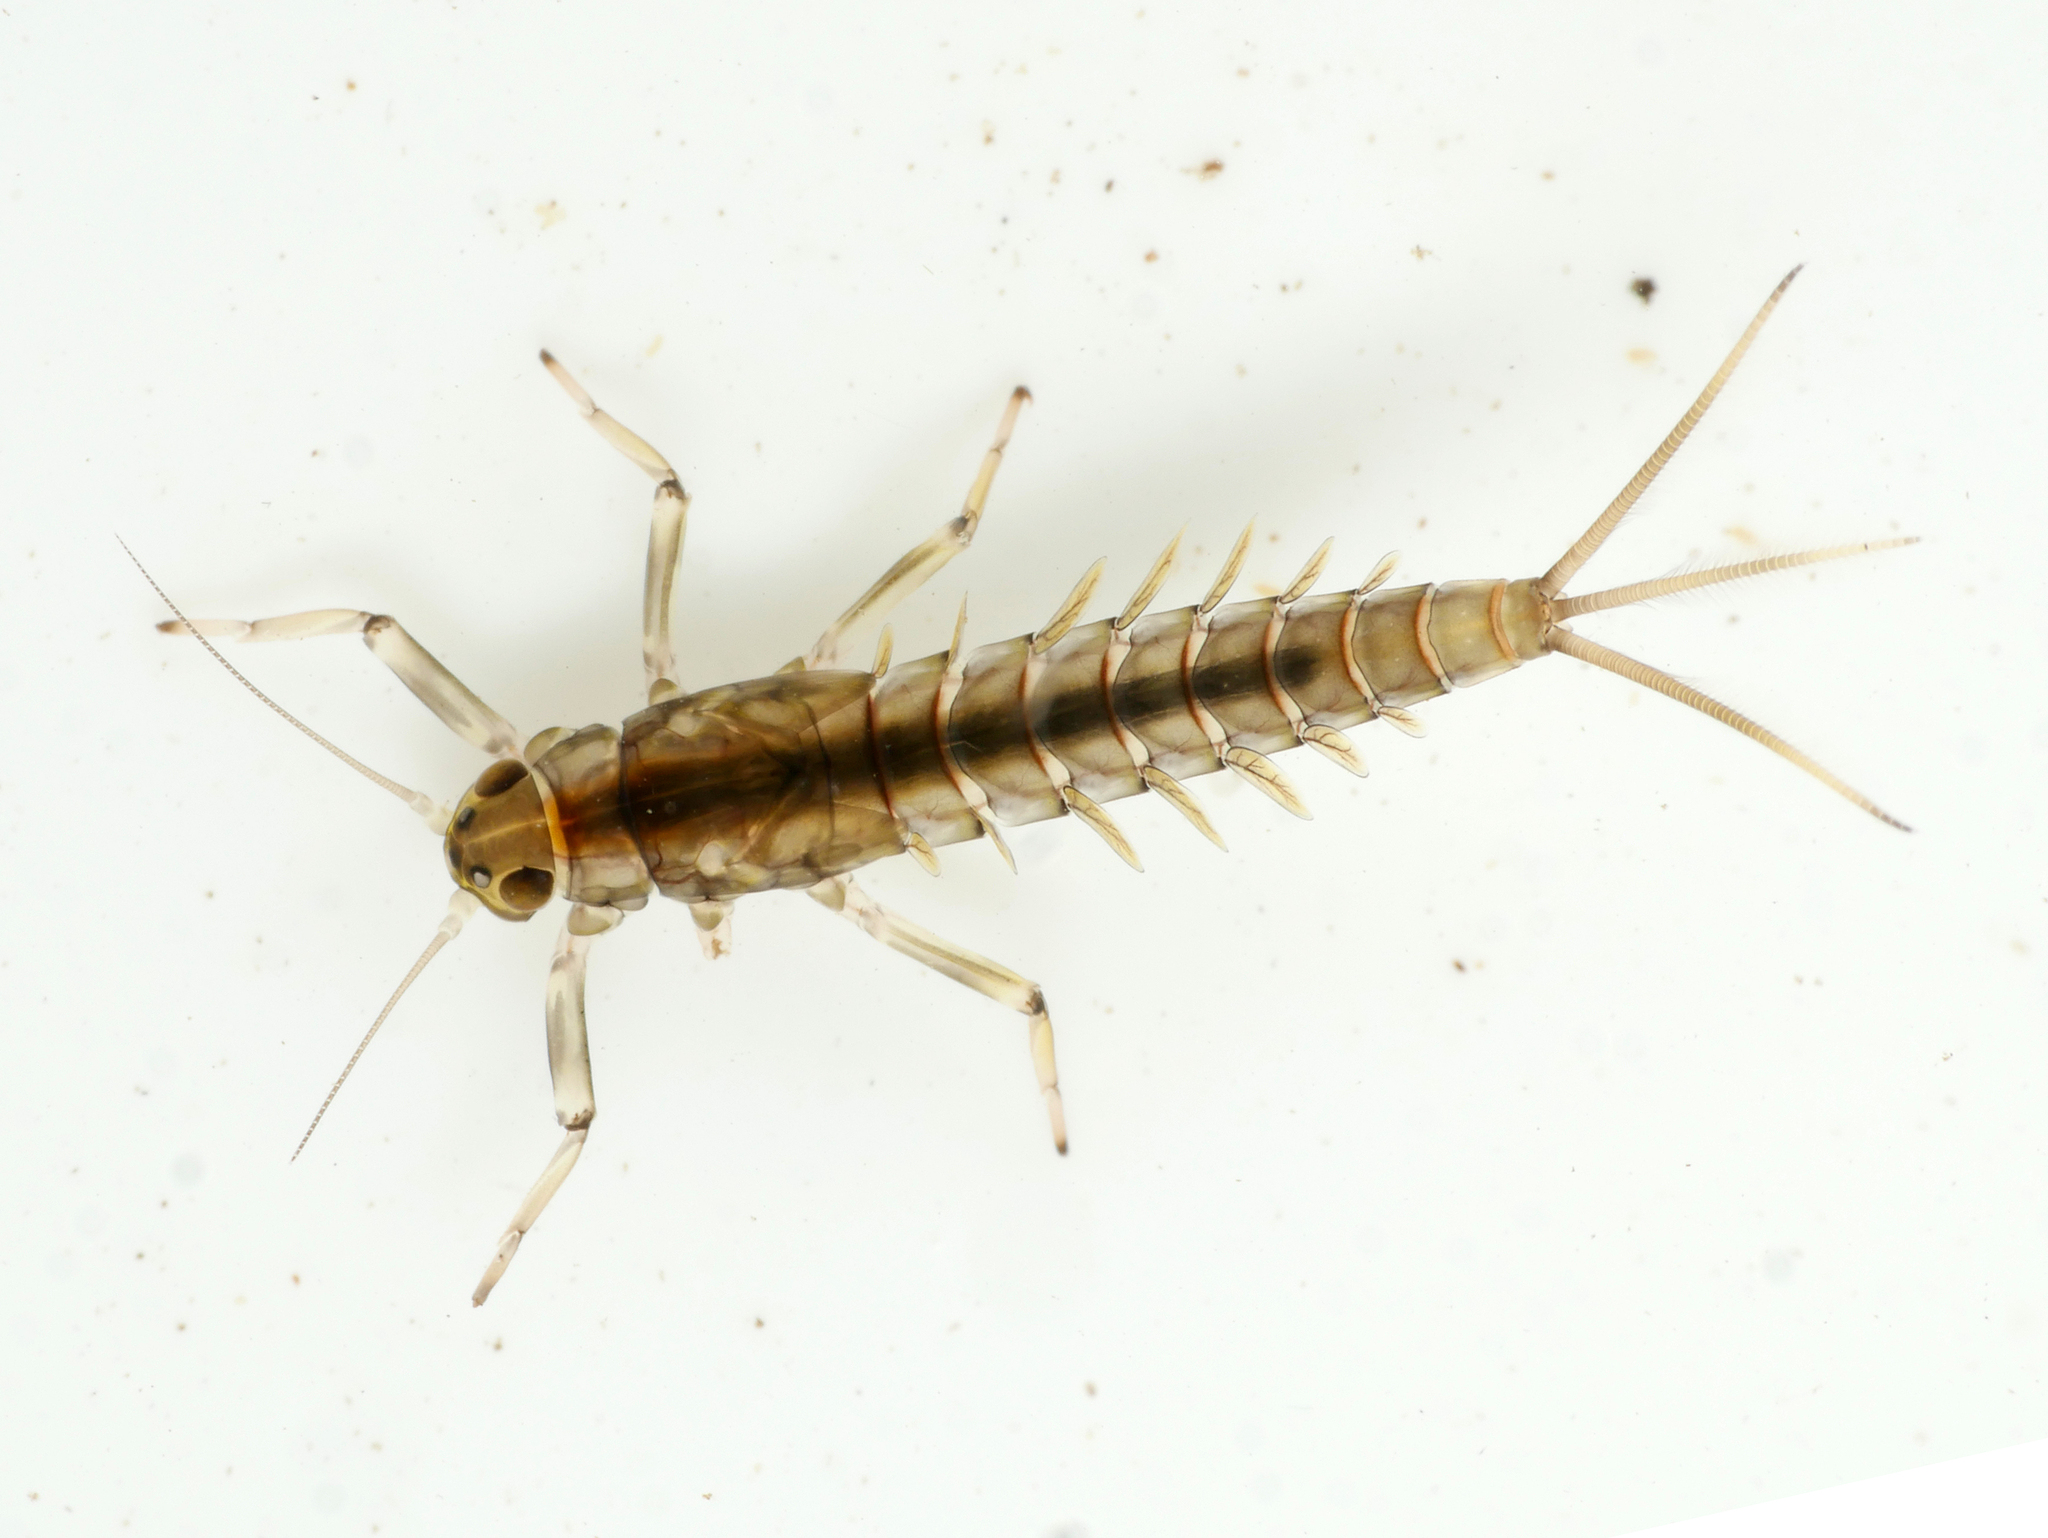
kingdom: Animalia
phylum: Arthropoda
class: Insecta
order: Ephemeroptera
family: Baetidae
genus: Baetis
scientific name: Baetis rhodani
